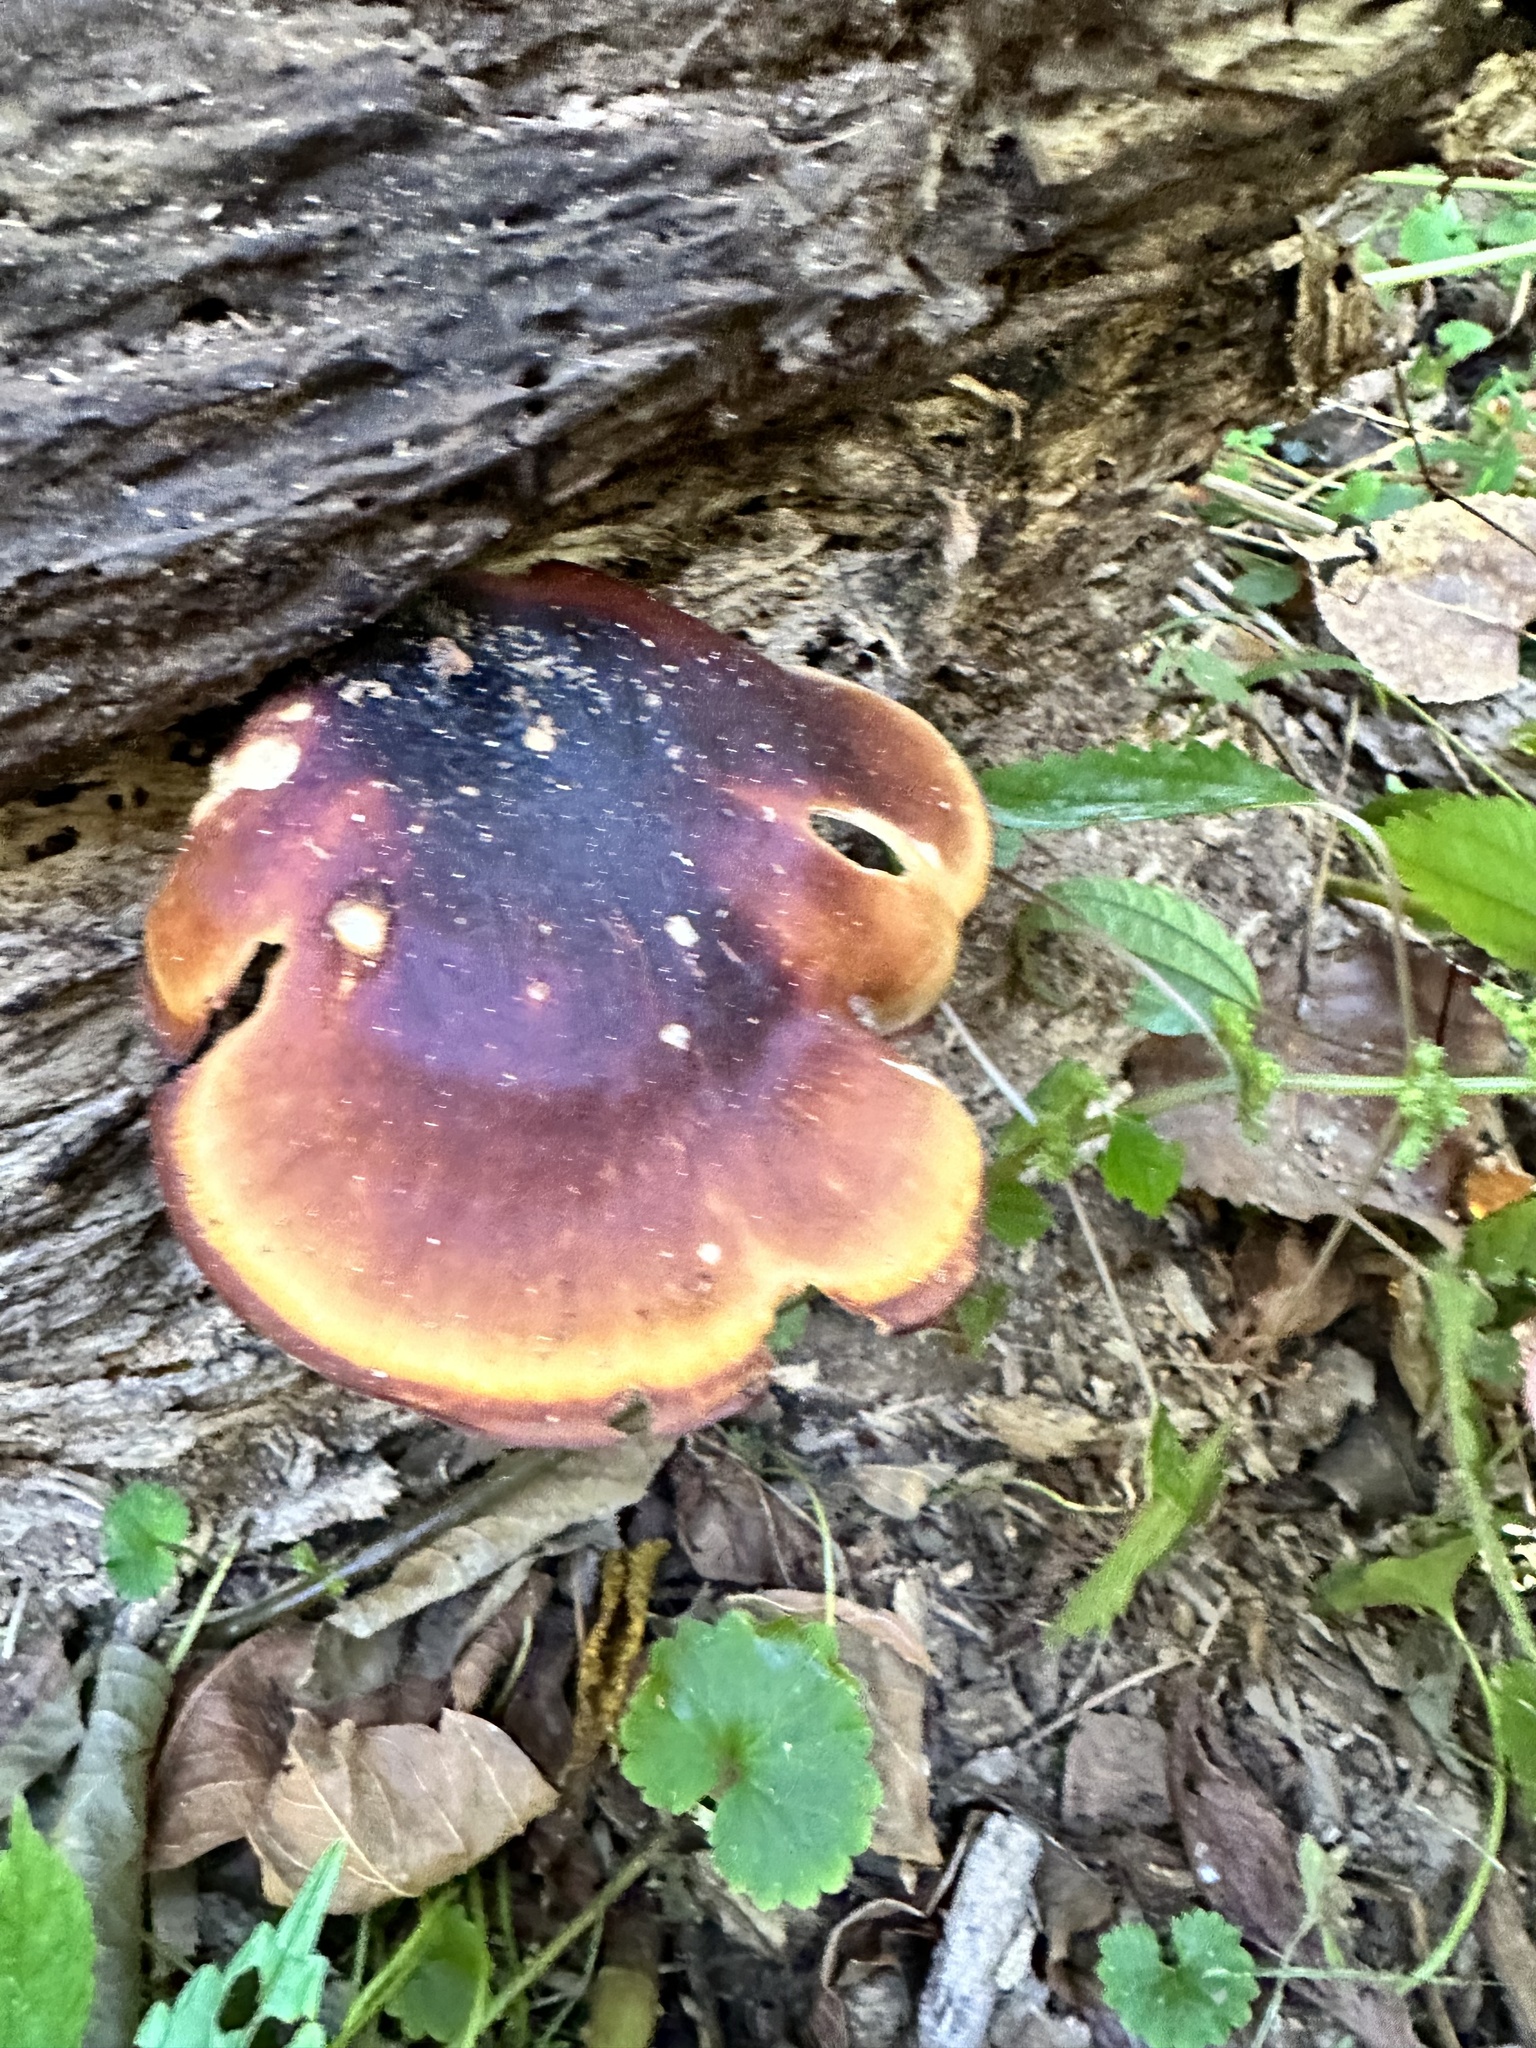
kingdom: Fungi
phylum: Basidiomycota
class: Agaricomycetes
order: Polyporales
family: Polyporaceae
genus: Picipes
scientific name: Picipes badius
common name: Bay polypore
